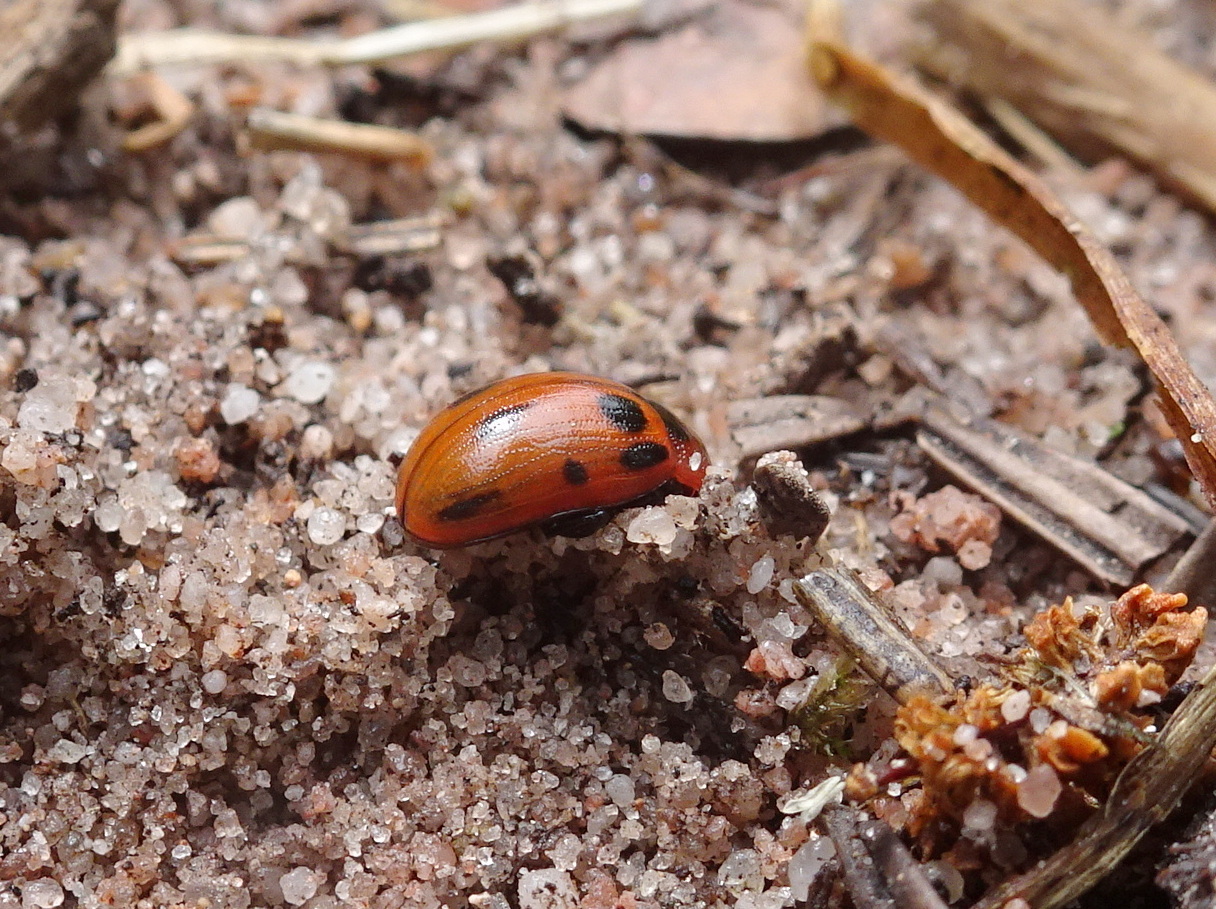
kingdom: Animalia
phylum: Arthropoda
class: Insecta
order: Coleoptera
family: Chrysomelidae
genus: Gonioctena
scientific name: Gonioctena viminalis
